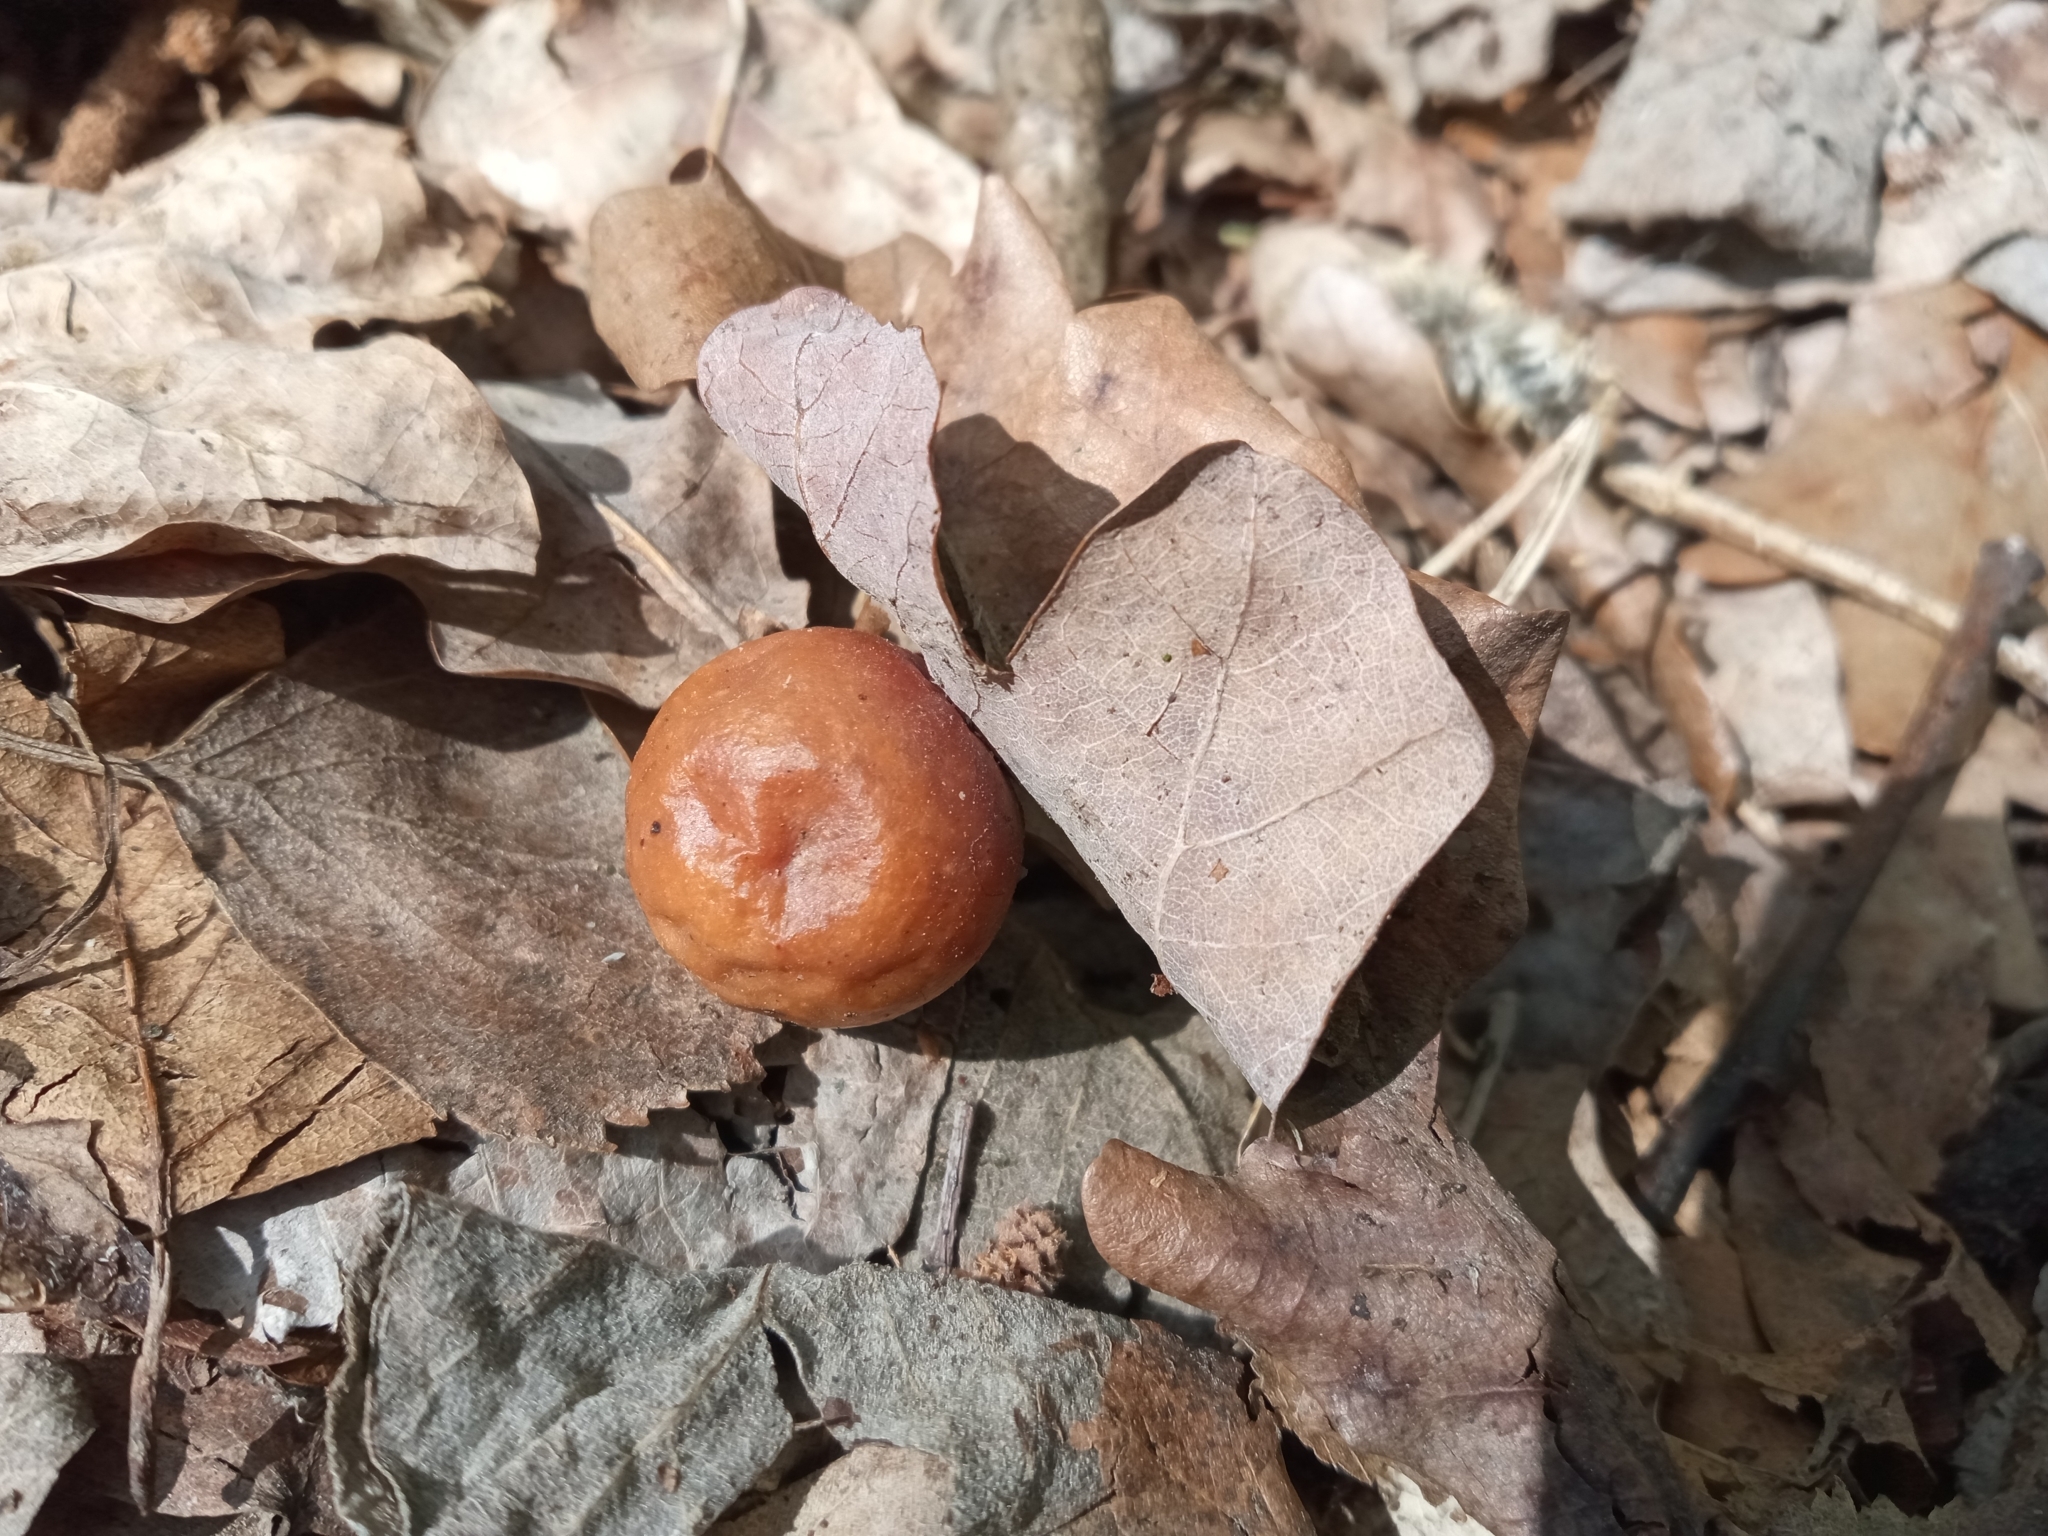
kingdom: Animalia
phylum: Arthropoda
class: Insecta
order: Hymenoptera
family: Cynipidae
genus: Cynips
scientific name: Cynips quercusfolii
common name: Cherry gall
